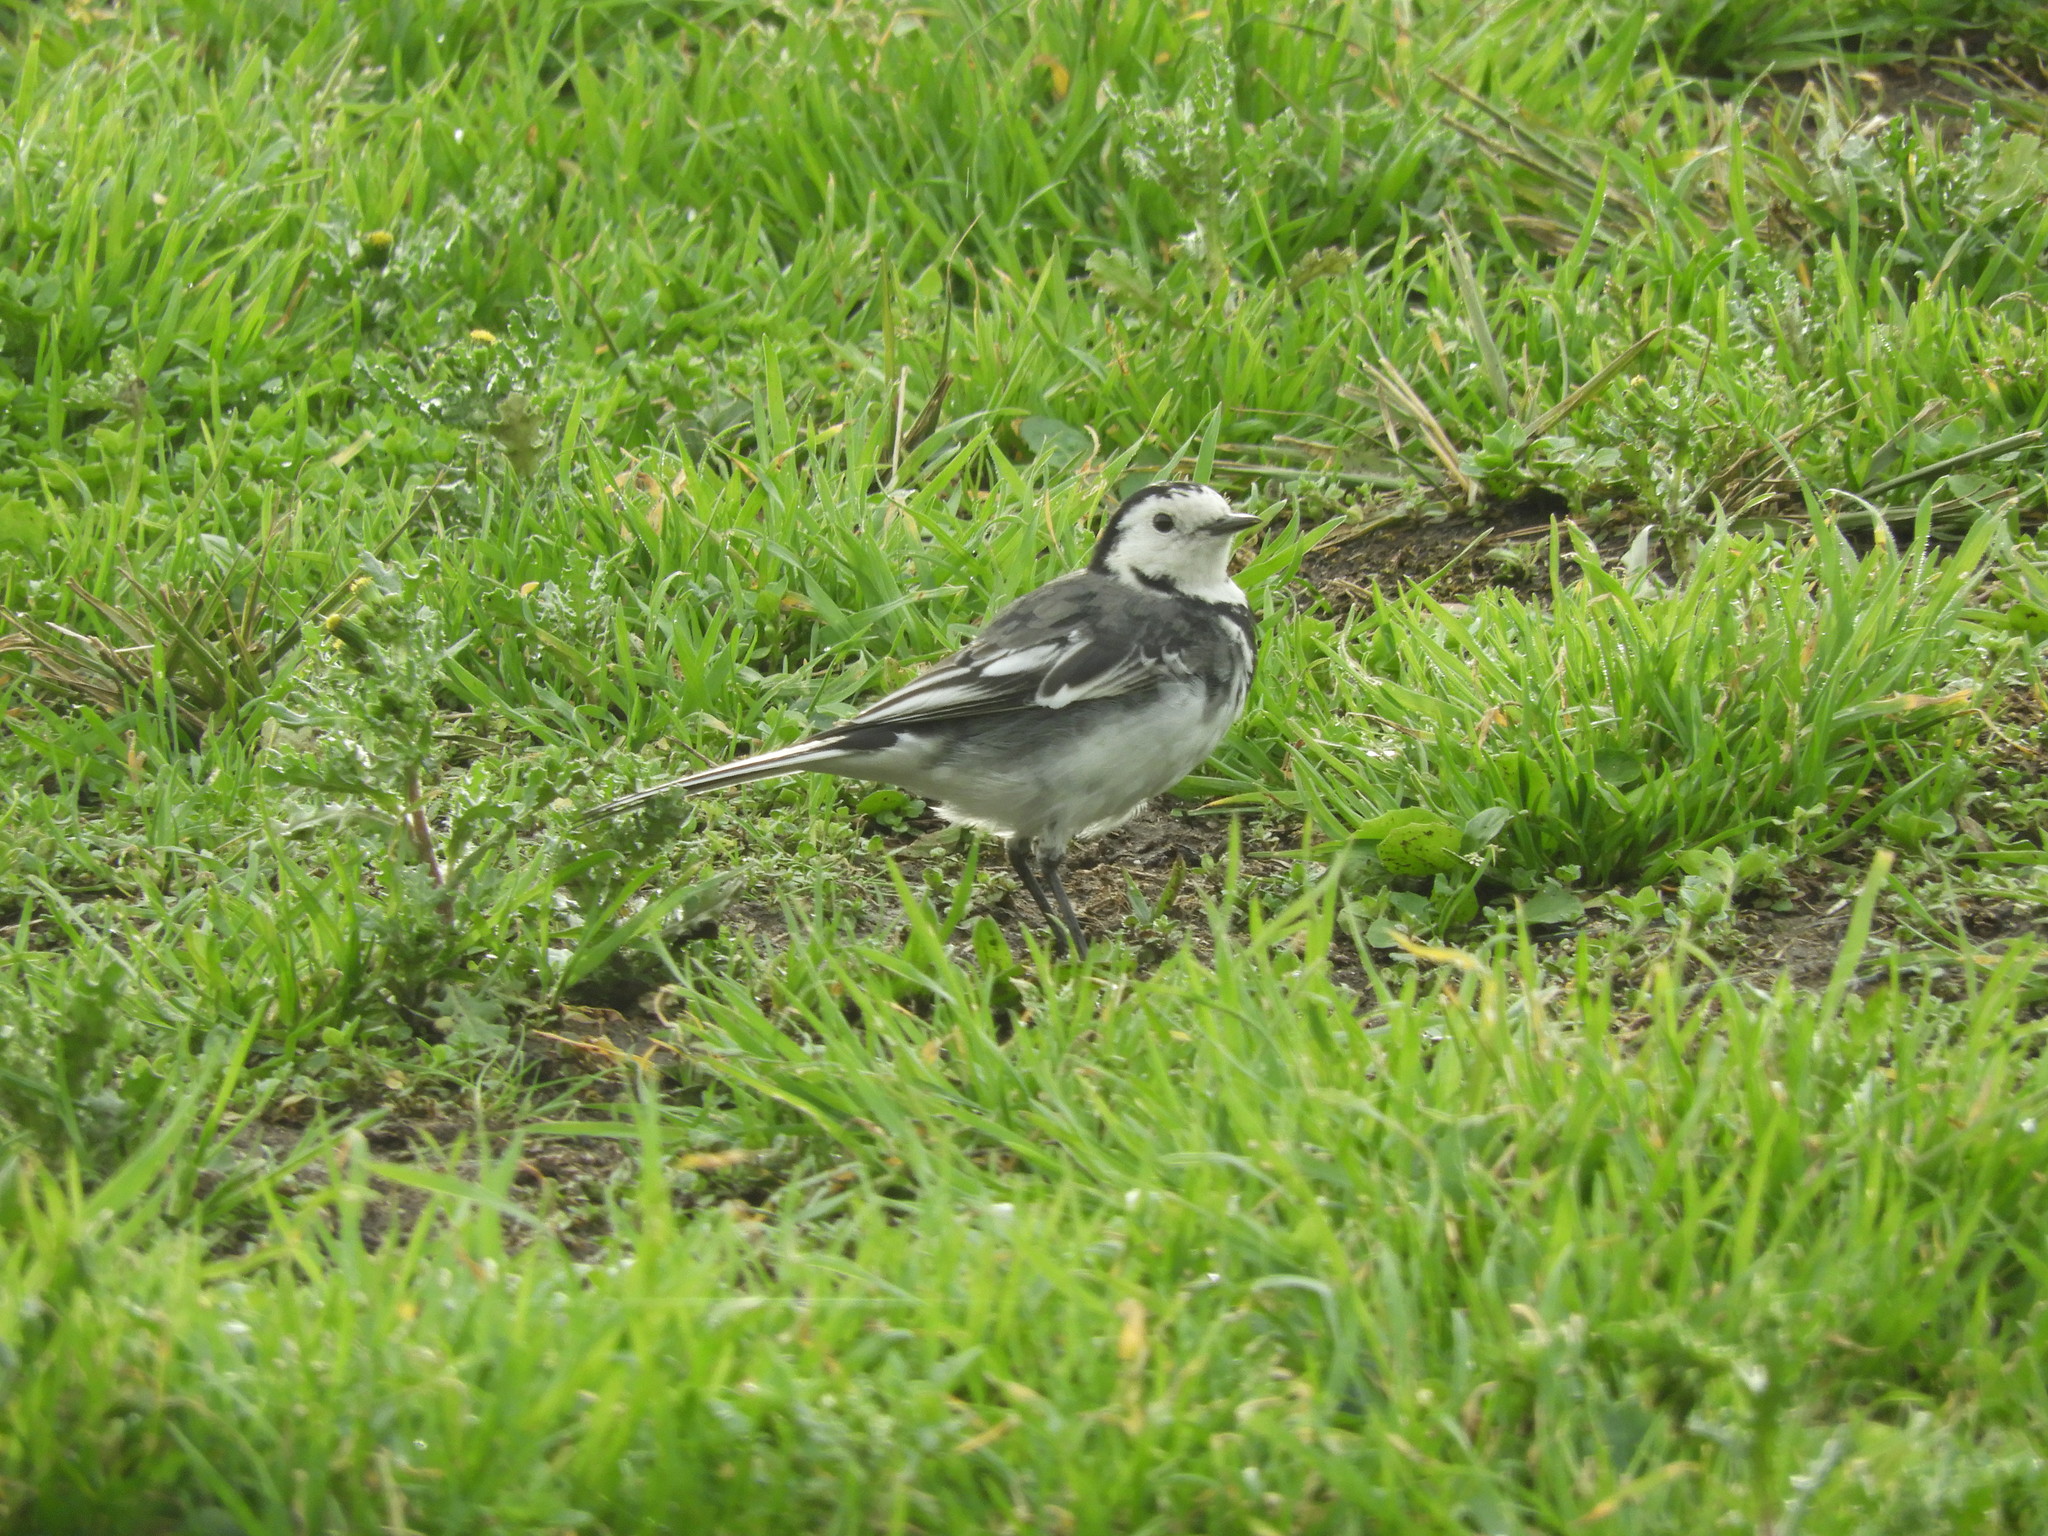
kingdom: Animalia
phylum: Chordata
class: Aves
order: Passeriformes
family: Motacillidae
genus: Motacilla
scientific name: Motacilla alba
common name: White wagtail
